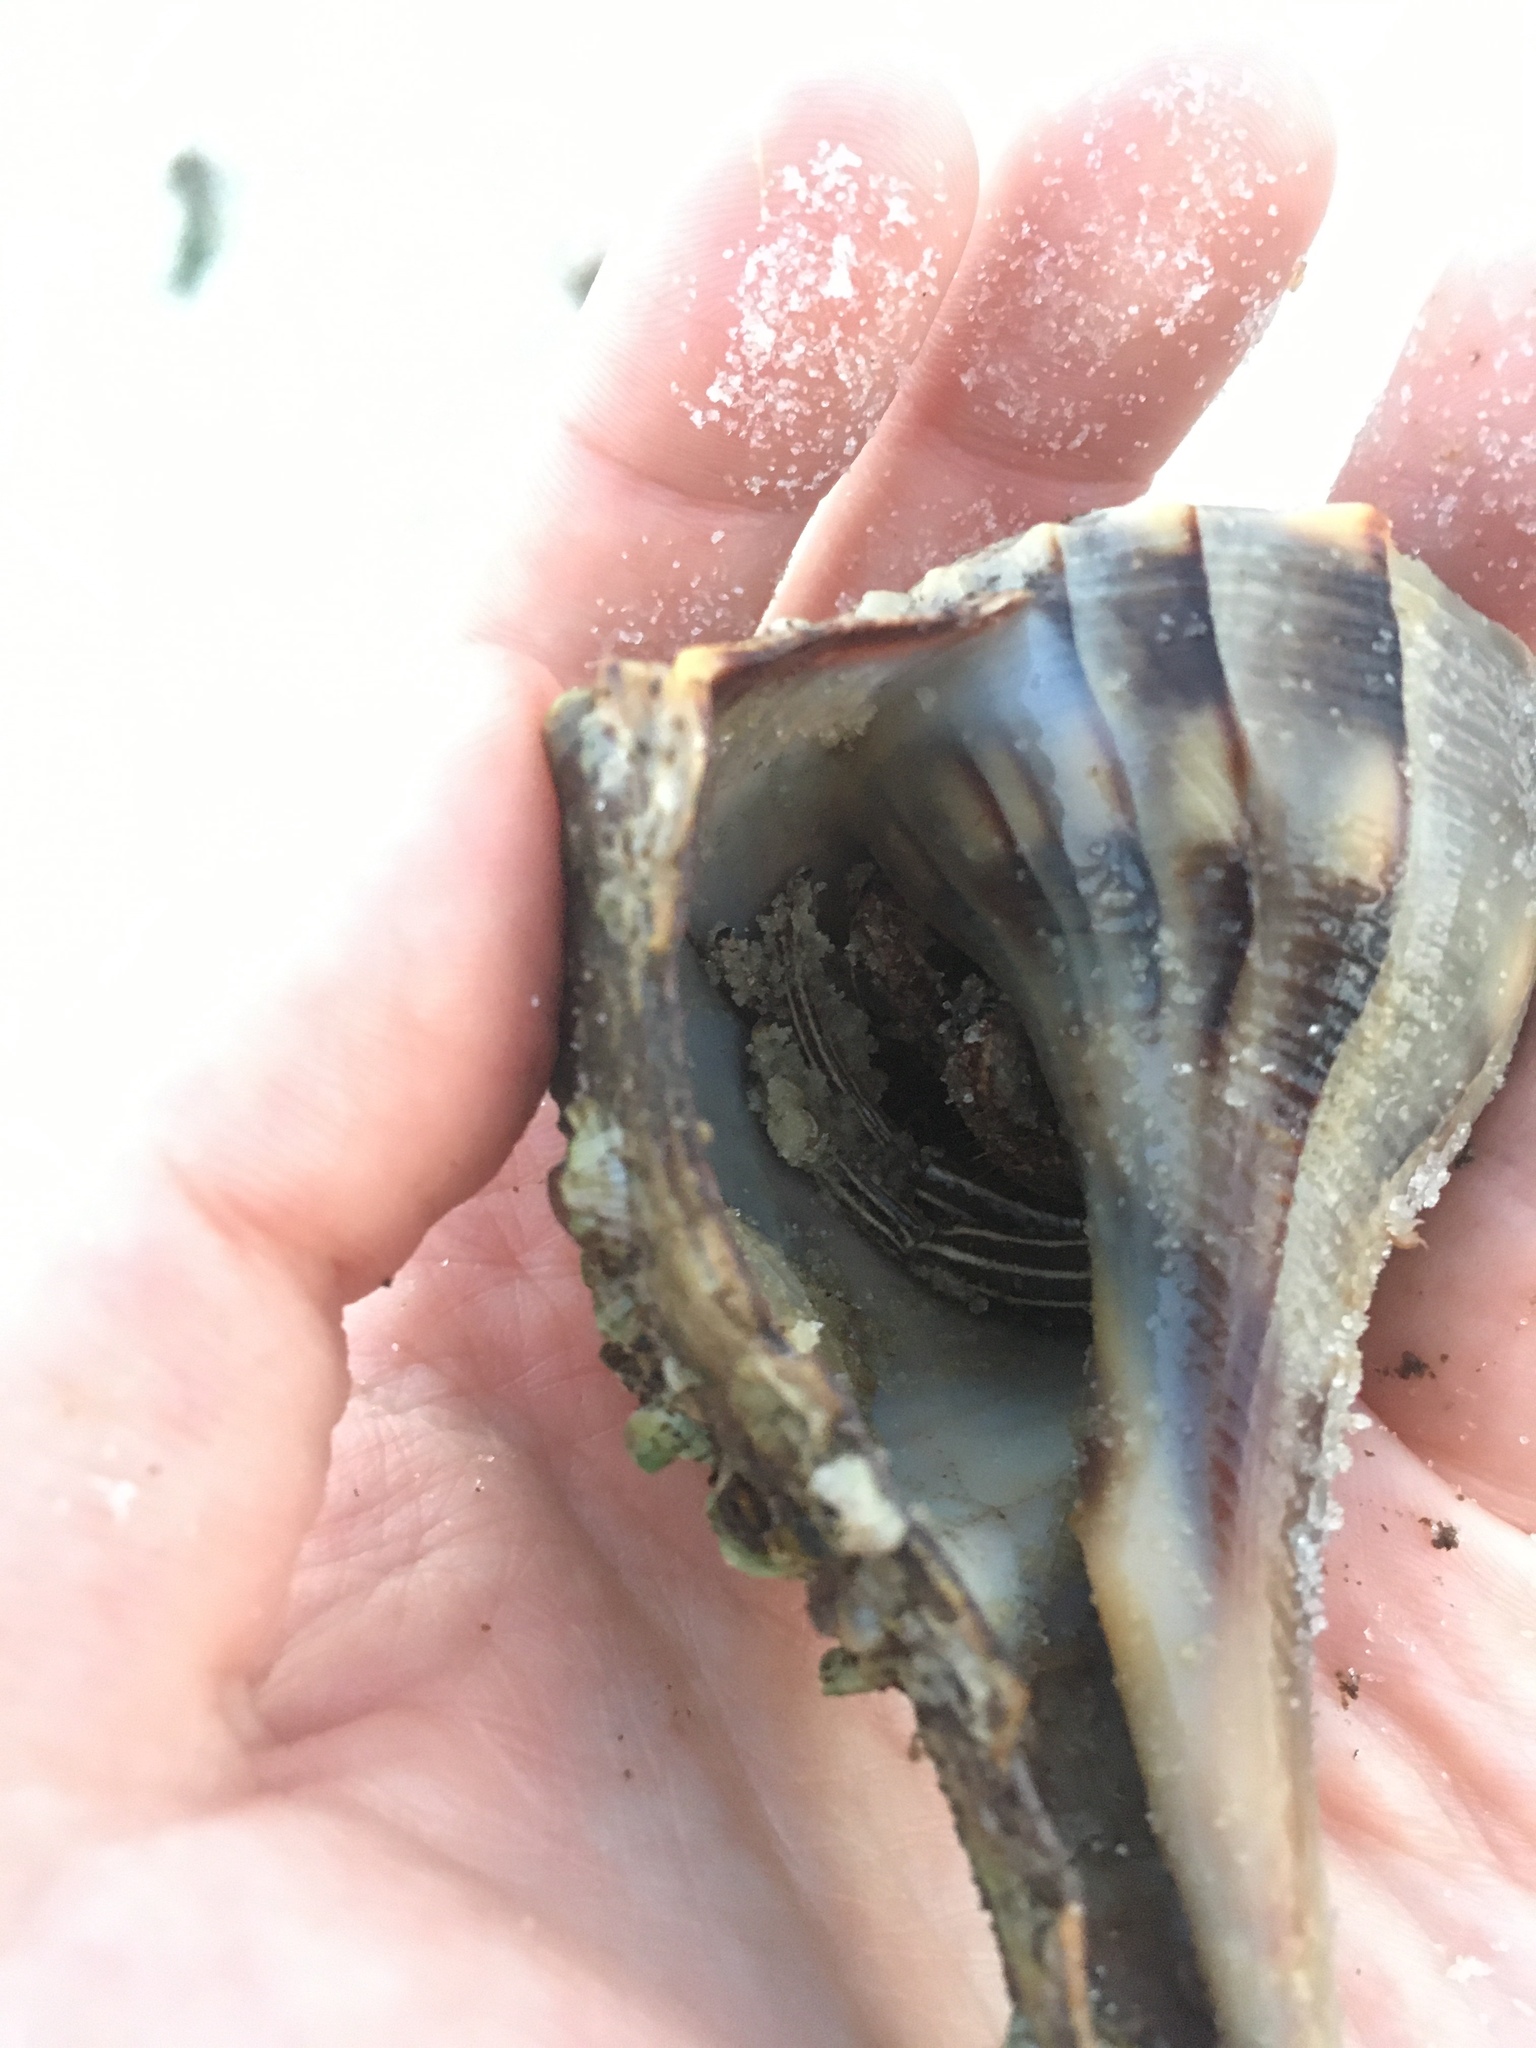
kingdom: Animalia
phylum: Arthropoda
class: Malacostraca
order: Decapoda
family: Diogenidae
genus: Clibanarius
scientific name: Clibanarius vittatus
